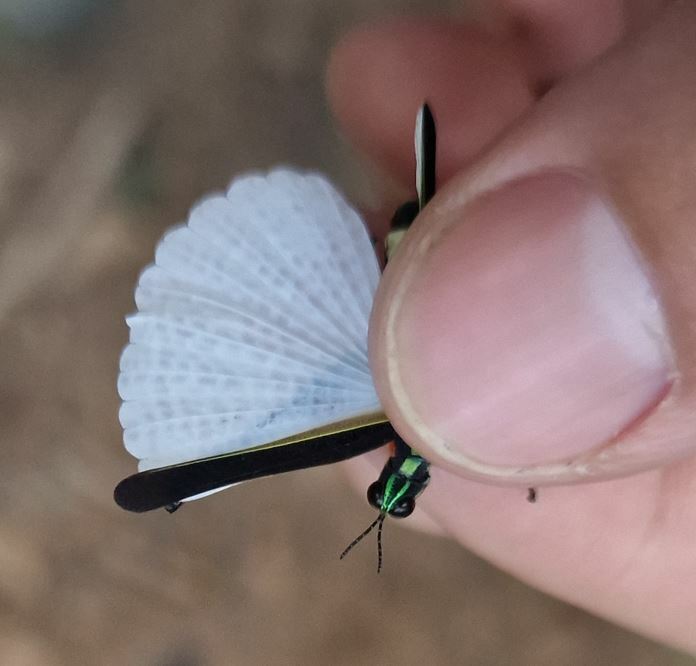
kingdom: Animalia
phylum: Arthropoda
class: Insecta
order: Orthoptera
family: Eumastacidae
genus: Paramastax
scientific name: Paramastax nigra
